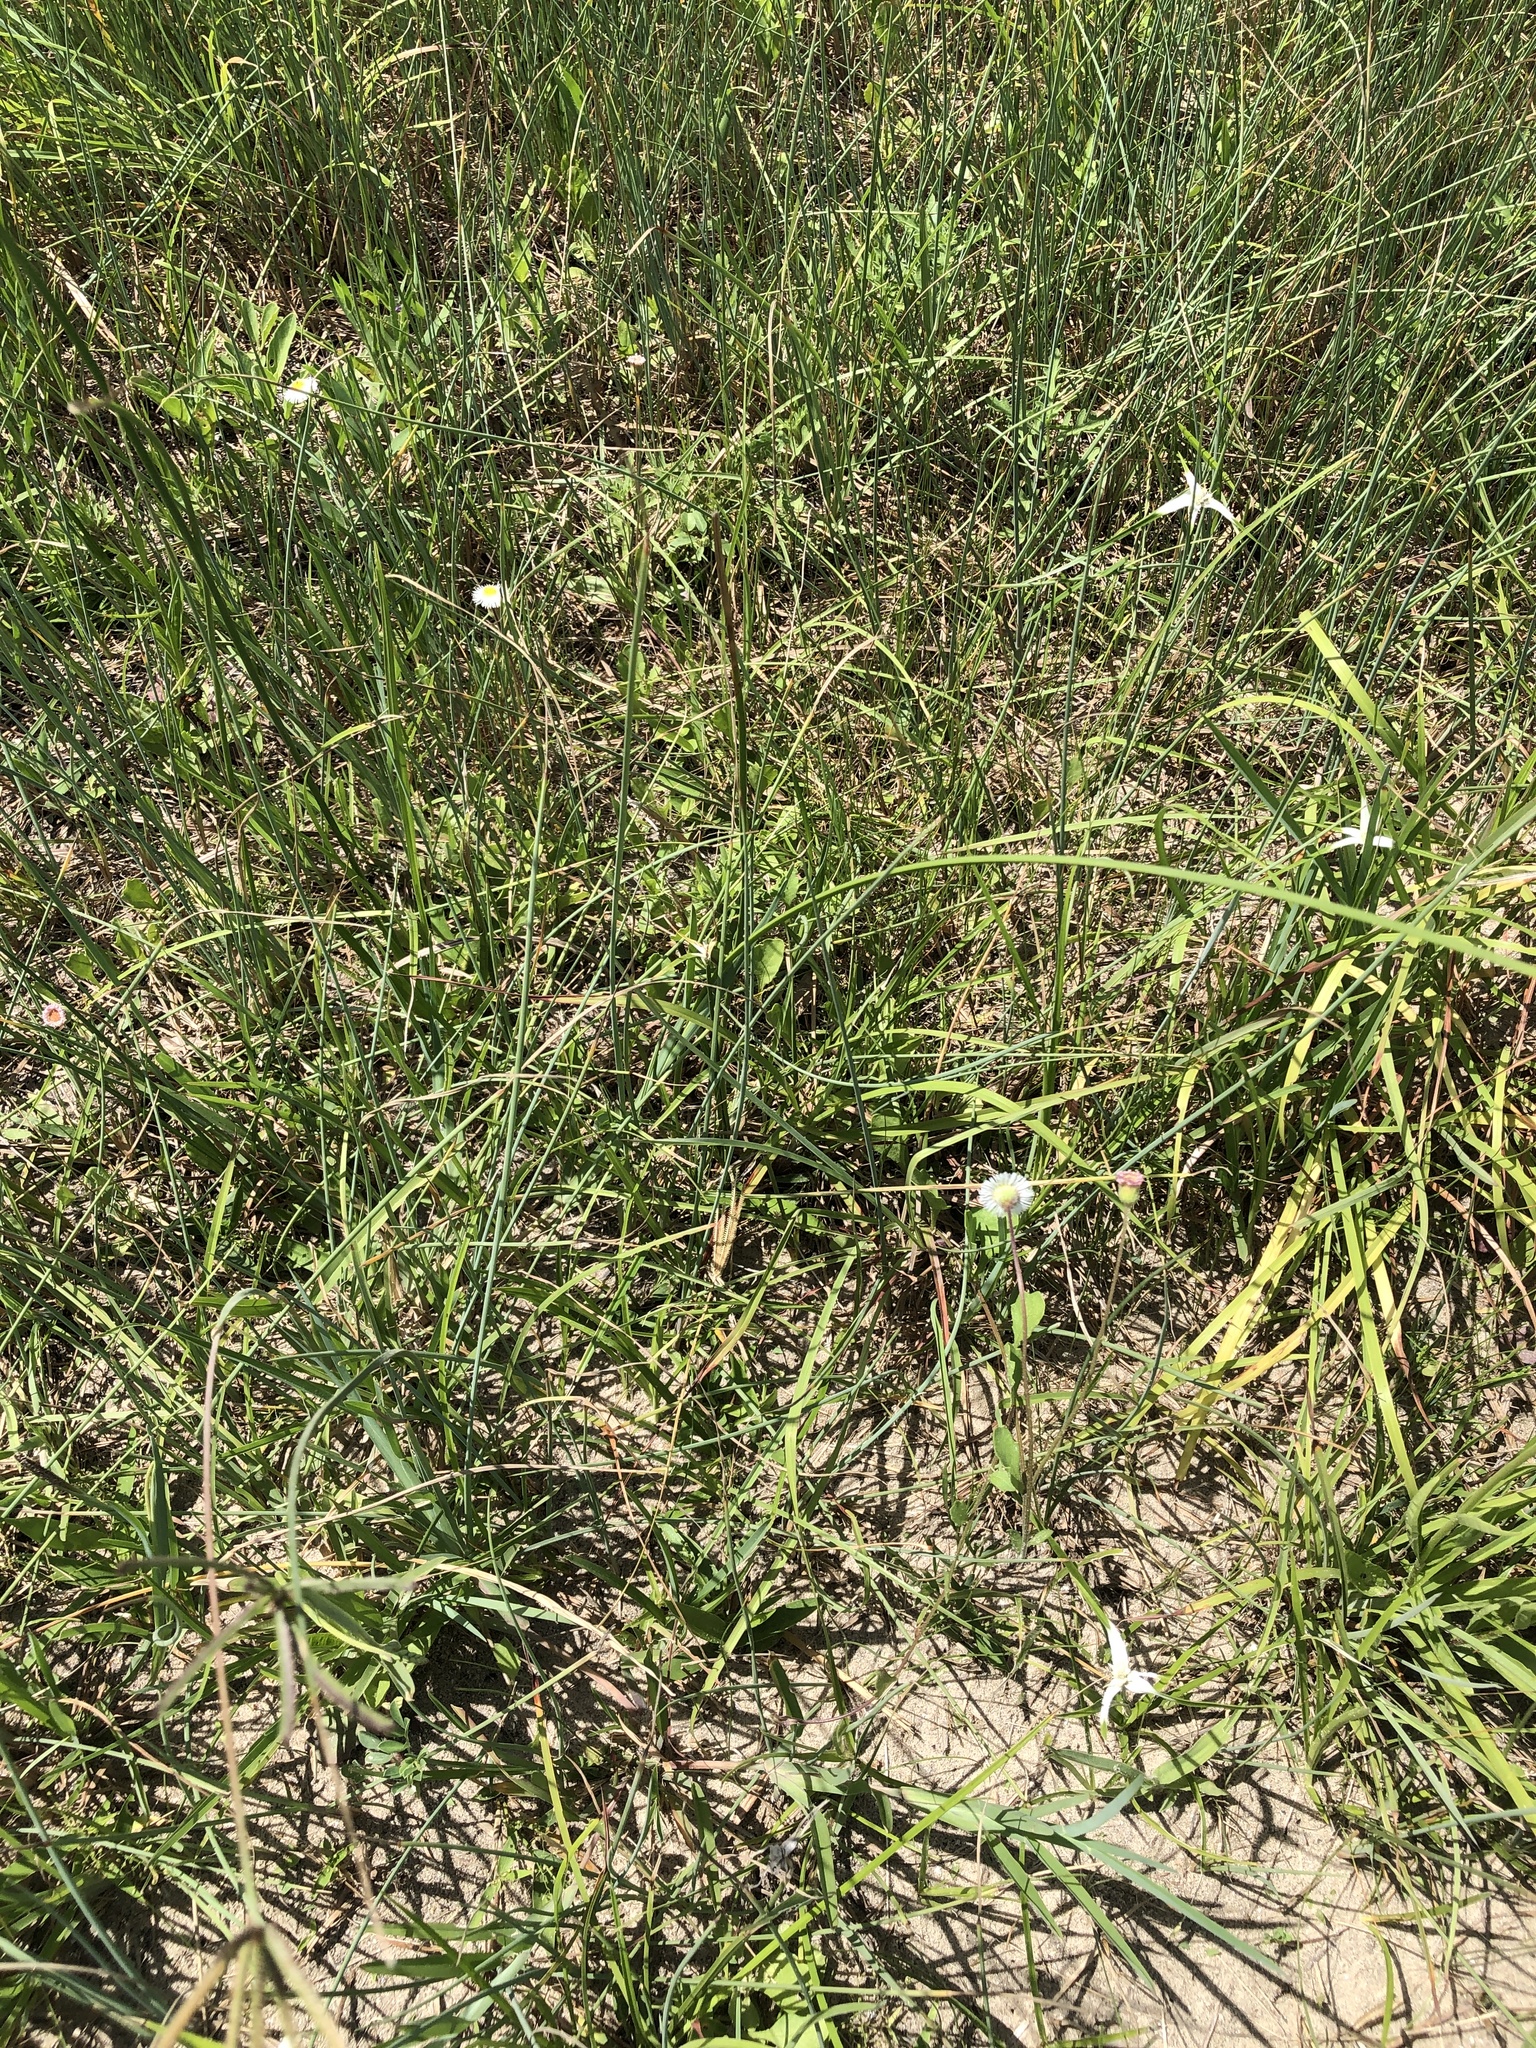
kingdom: Plantae
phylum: Tracheophyta
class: Magnoliopsida
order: Asterales
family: Asteraceae
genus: Erigeron
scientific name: Erigeron procumbens
